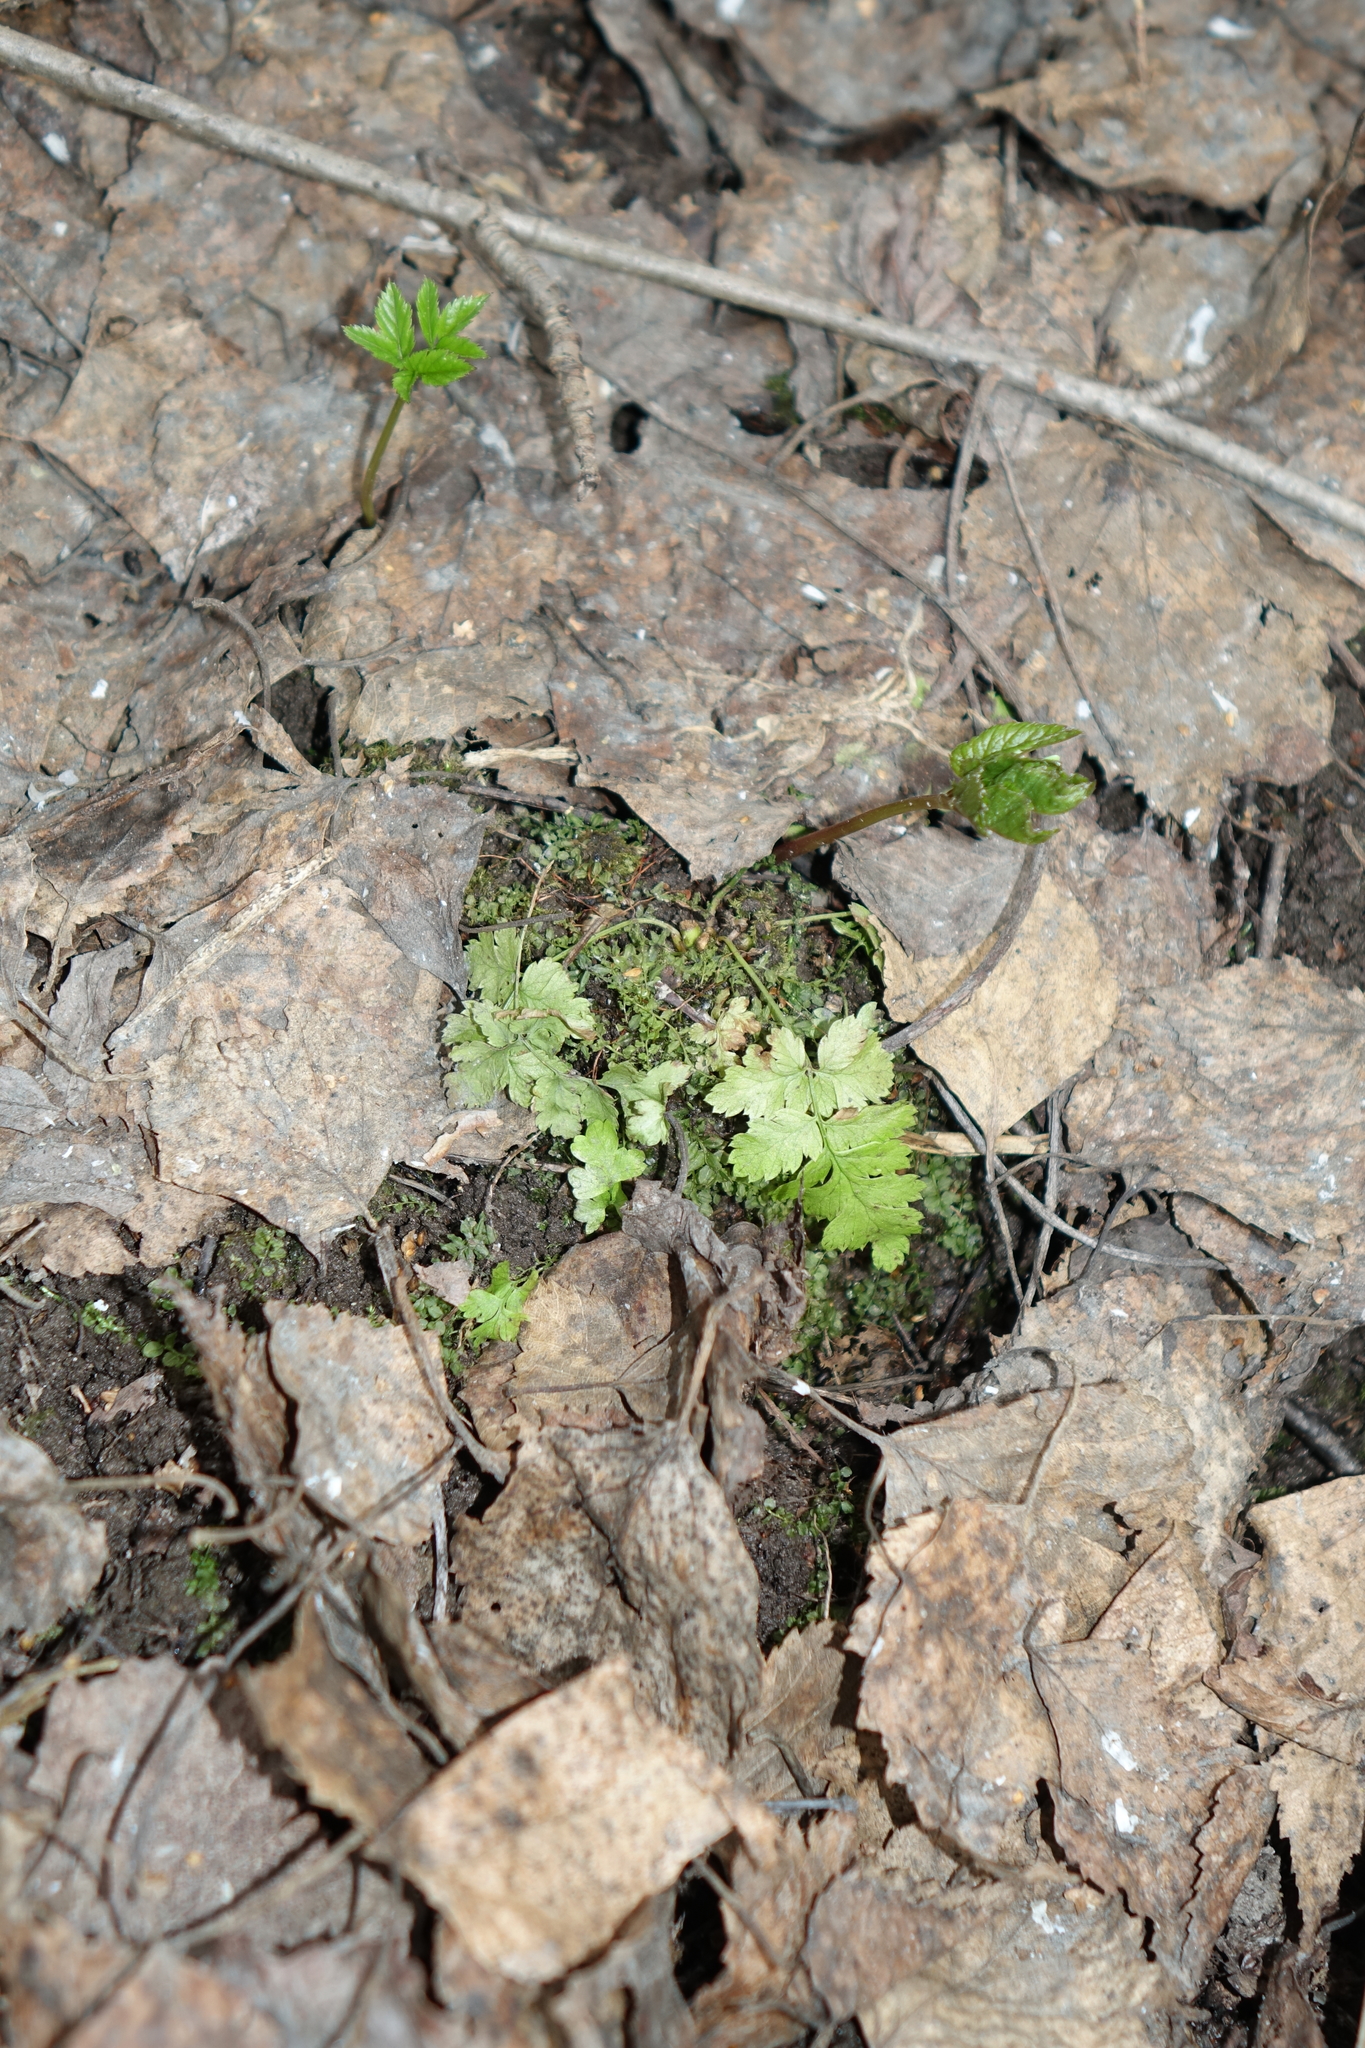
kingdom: Plantae
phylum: Tracheophyta
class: Polypodiopsida
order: Polypodiales
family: Dryopteridaceae
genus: Dryopteris
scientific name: Dryopteris carthusiana
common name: Narrow buckler-fern
